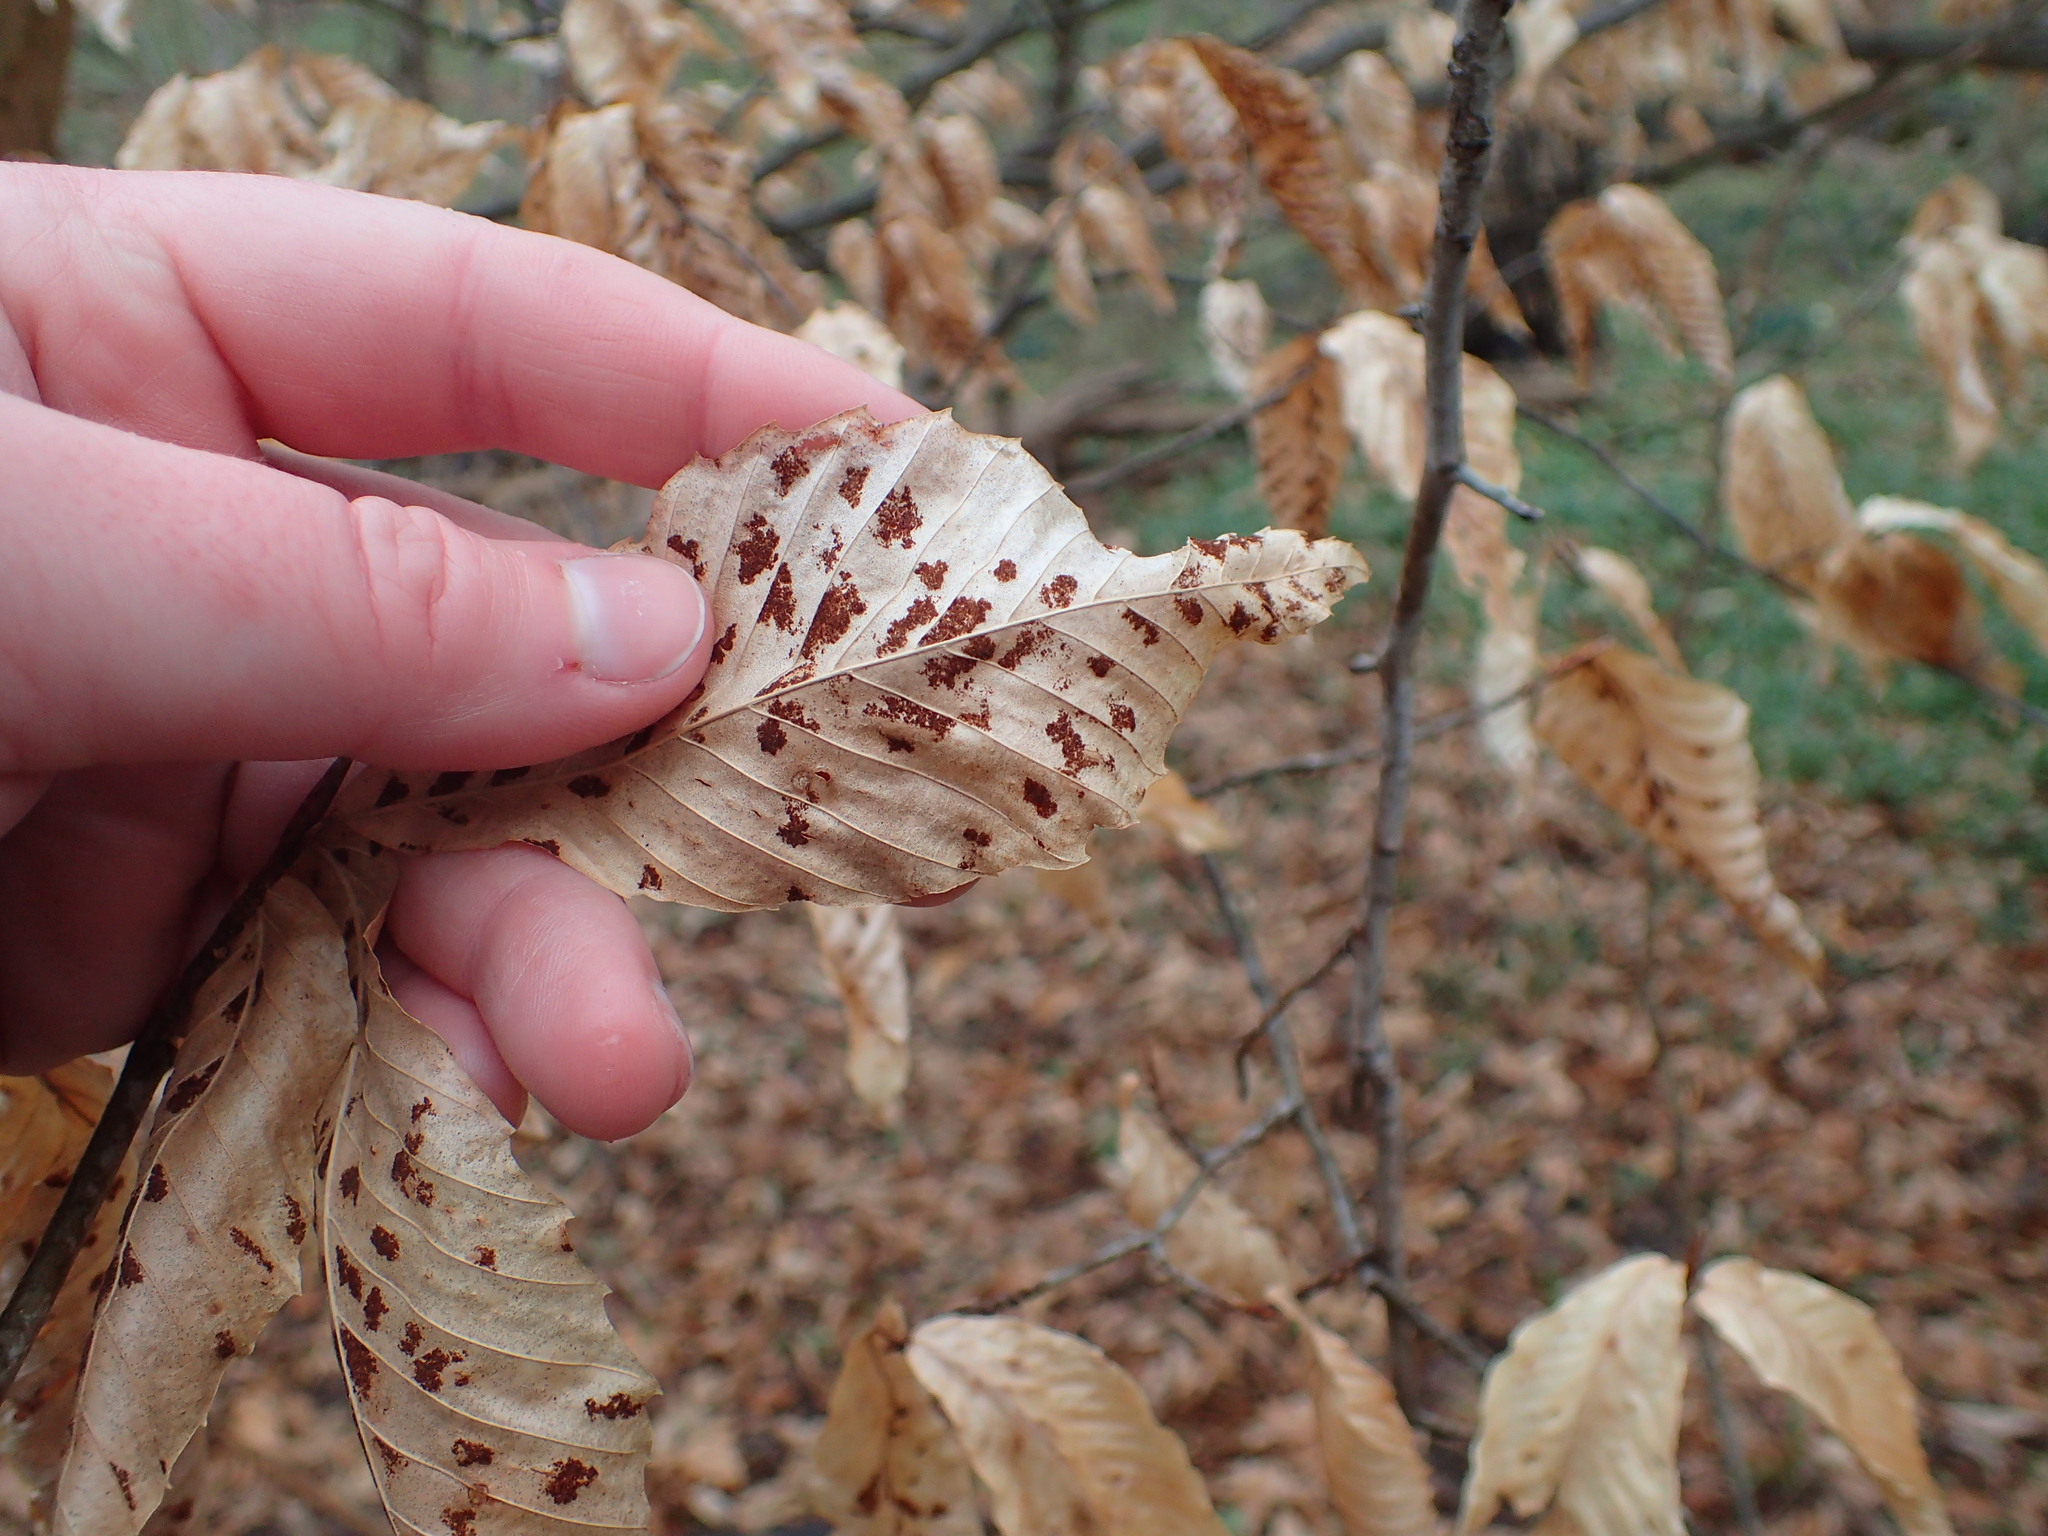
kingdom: Animalia
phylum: Arthropoda
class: Arachnida
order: Trombidiformes
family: Eriophyidae
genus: Acalitus
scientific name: Acalitus
